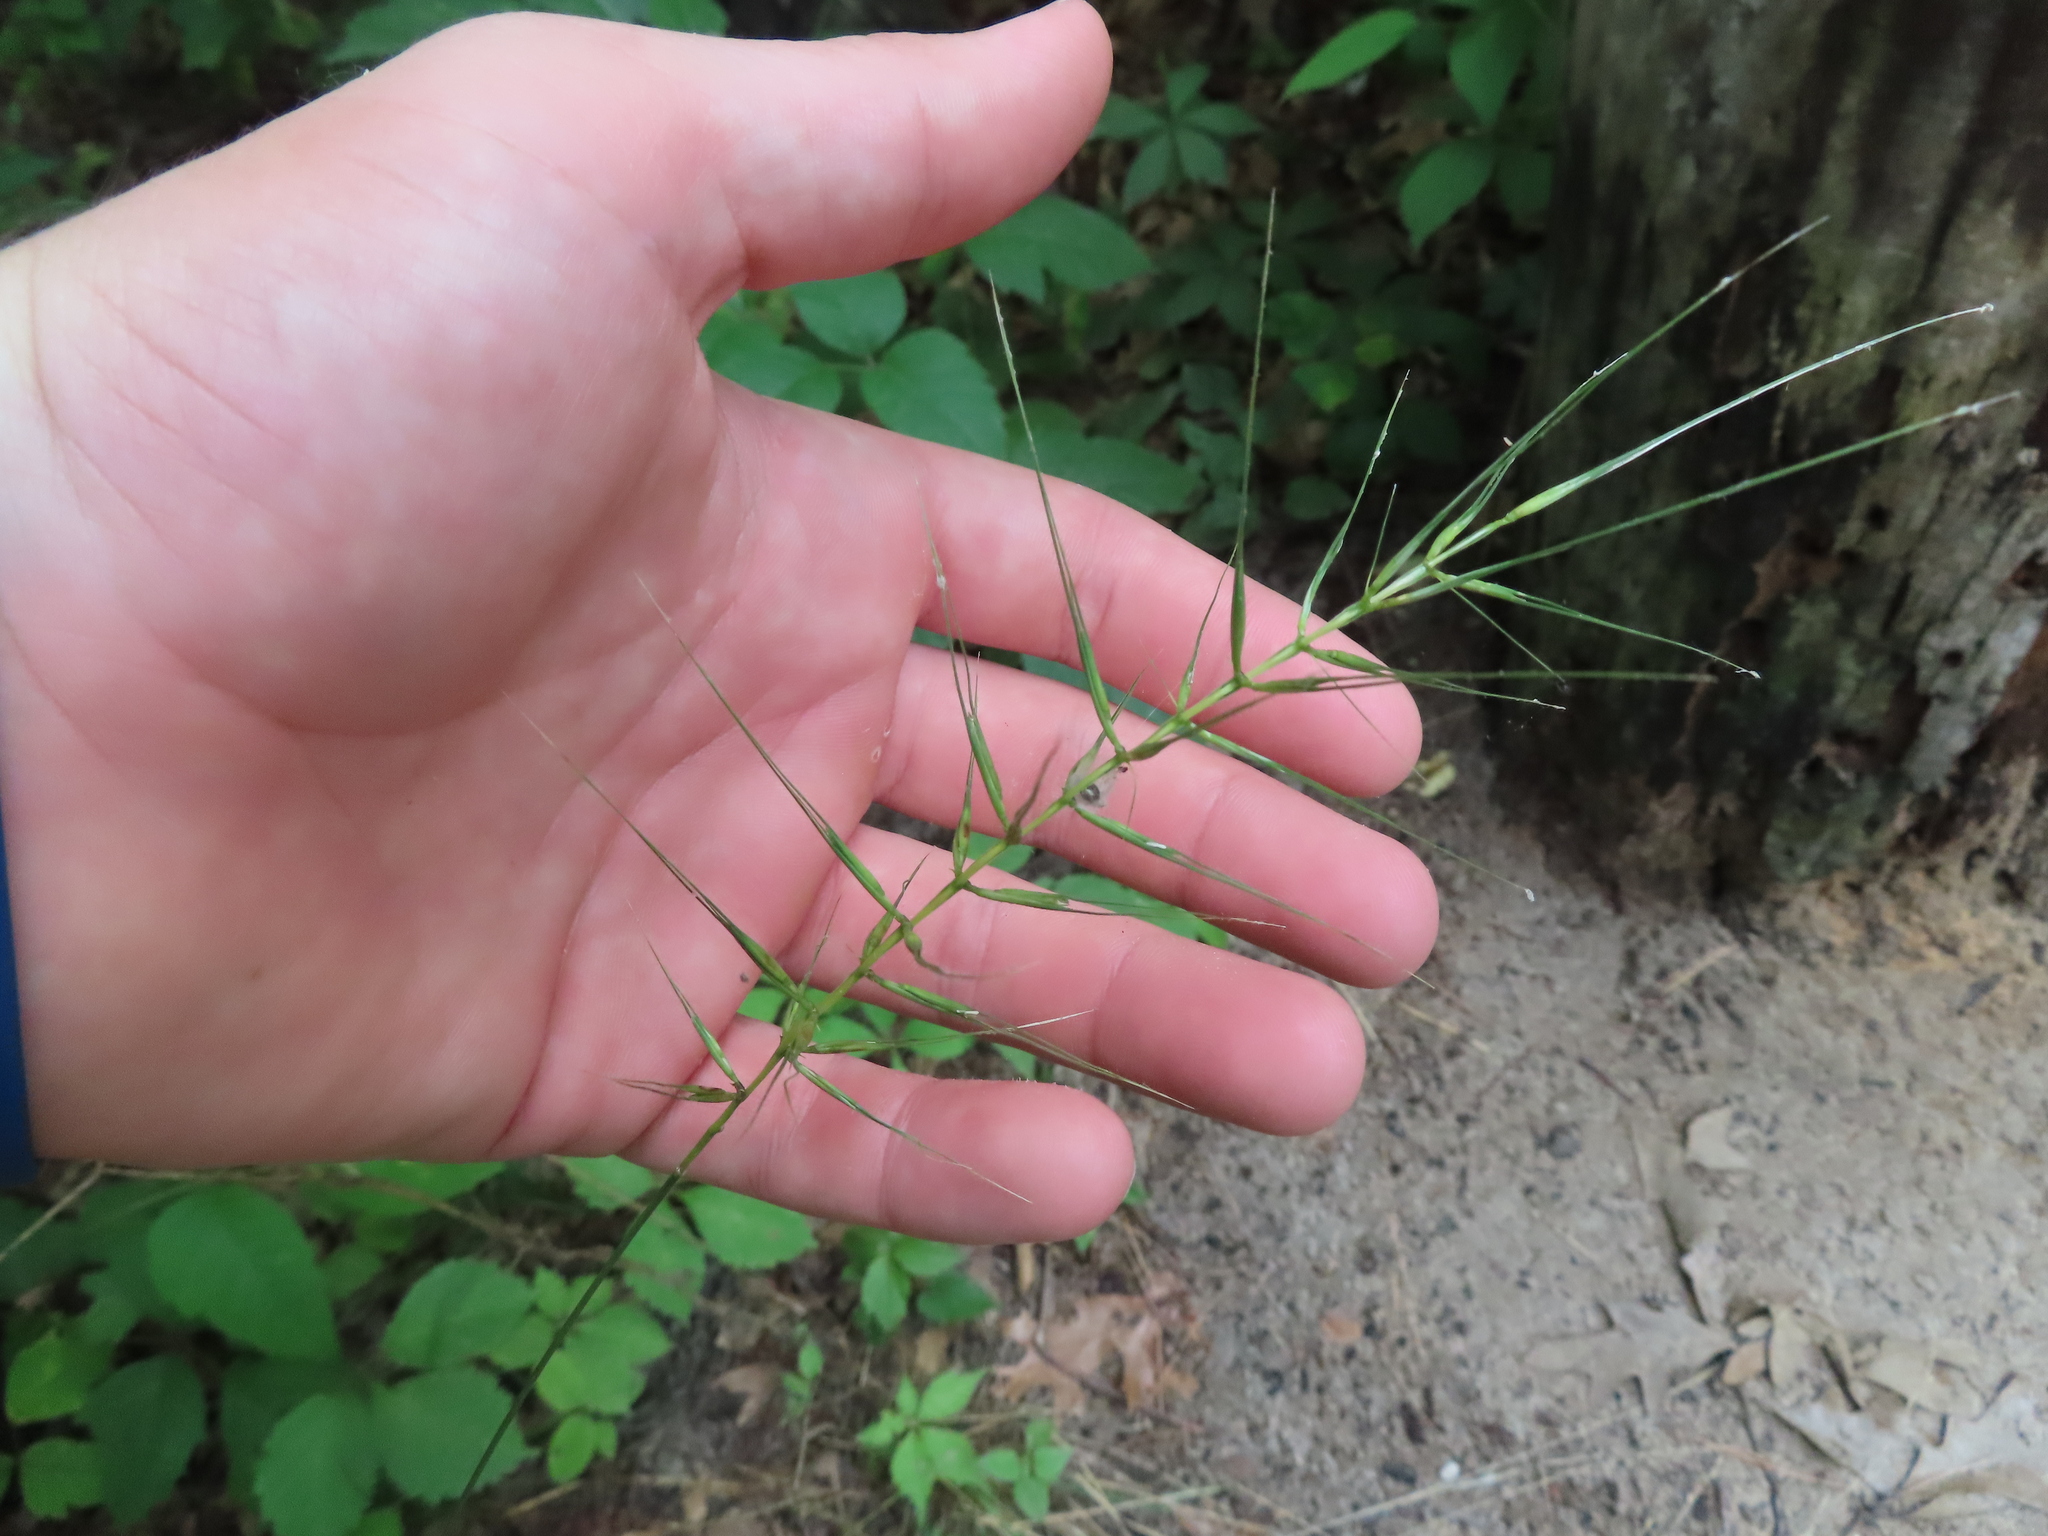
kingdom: Plantae
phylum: Tracheophyta
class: Liliopsida
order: Poales
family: Poaceae
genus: Elymus
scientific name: Elymus hystrix
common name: Bottlebrush grass
